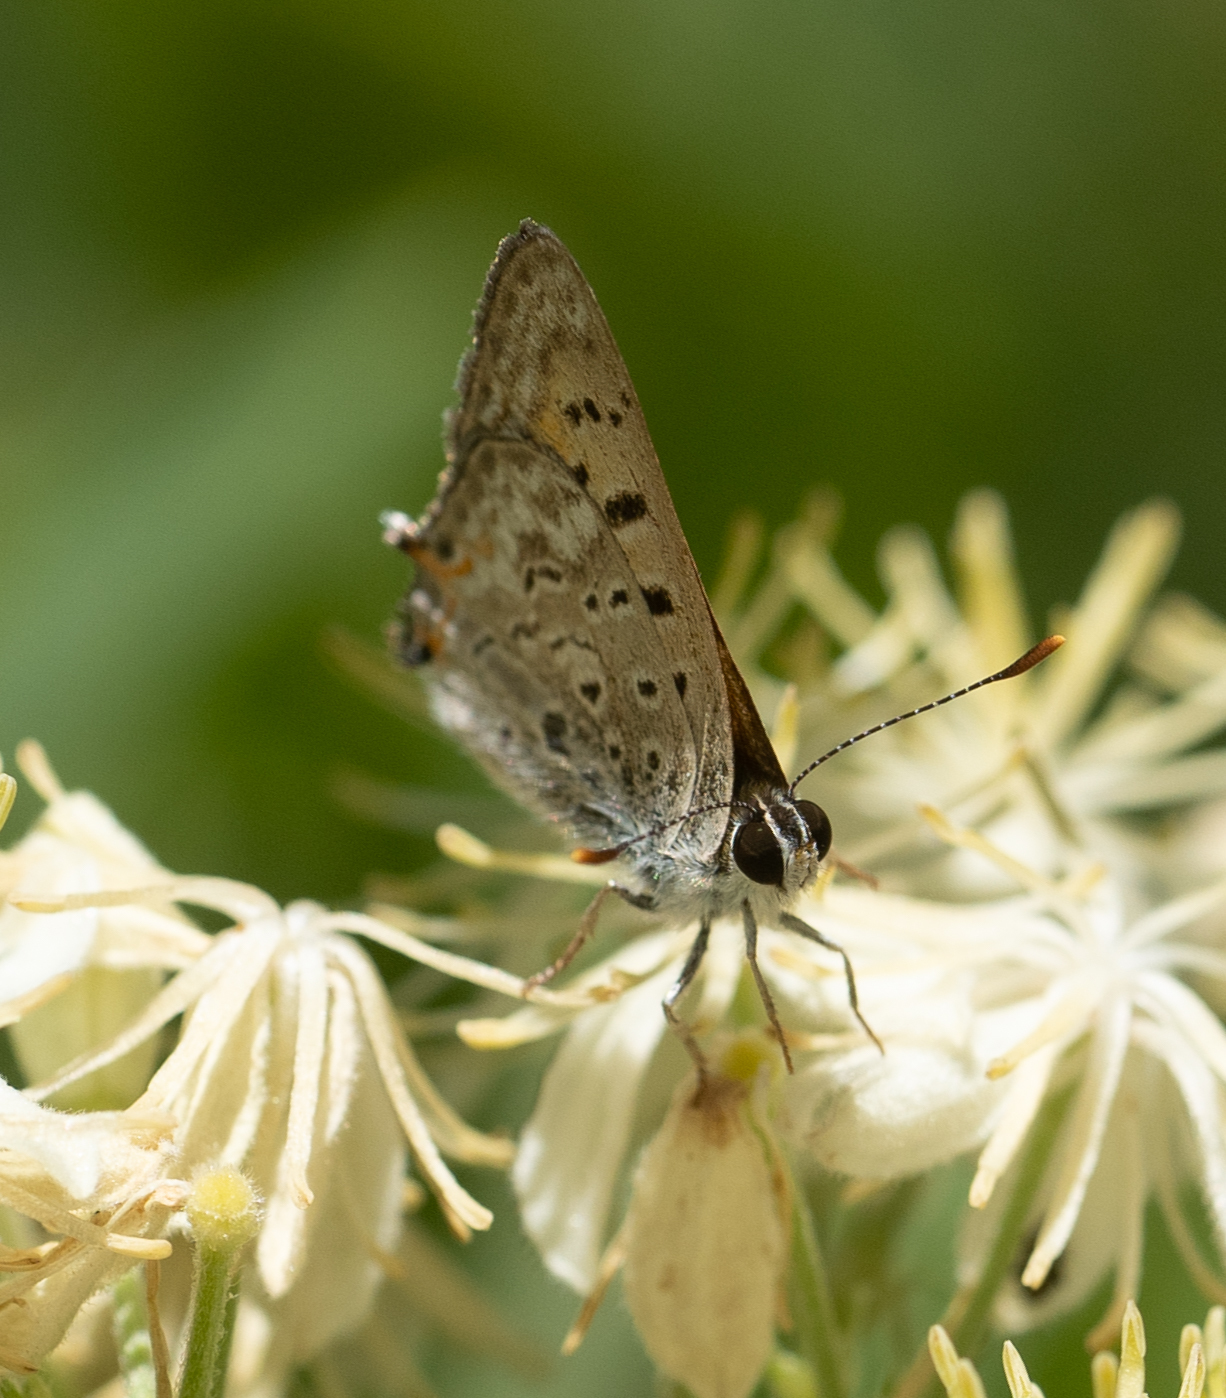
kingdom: Animalia
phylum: Arthropoda
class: Insecta
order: Lepidoptera
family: Lycaenidae
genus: Tharsalea
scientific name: Tharsalea arota
